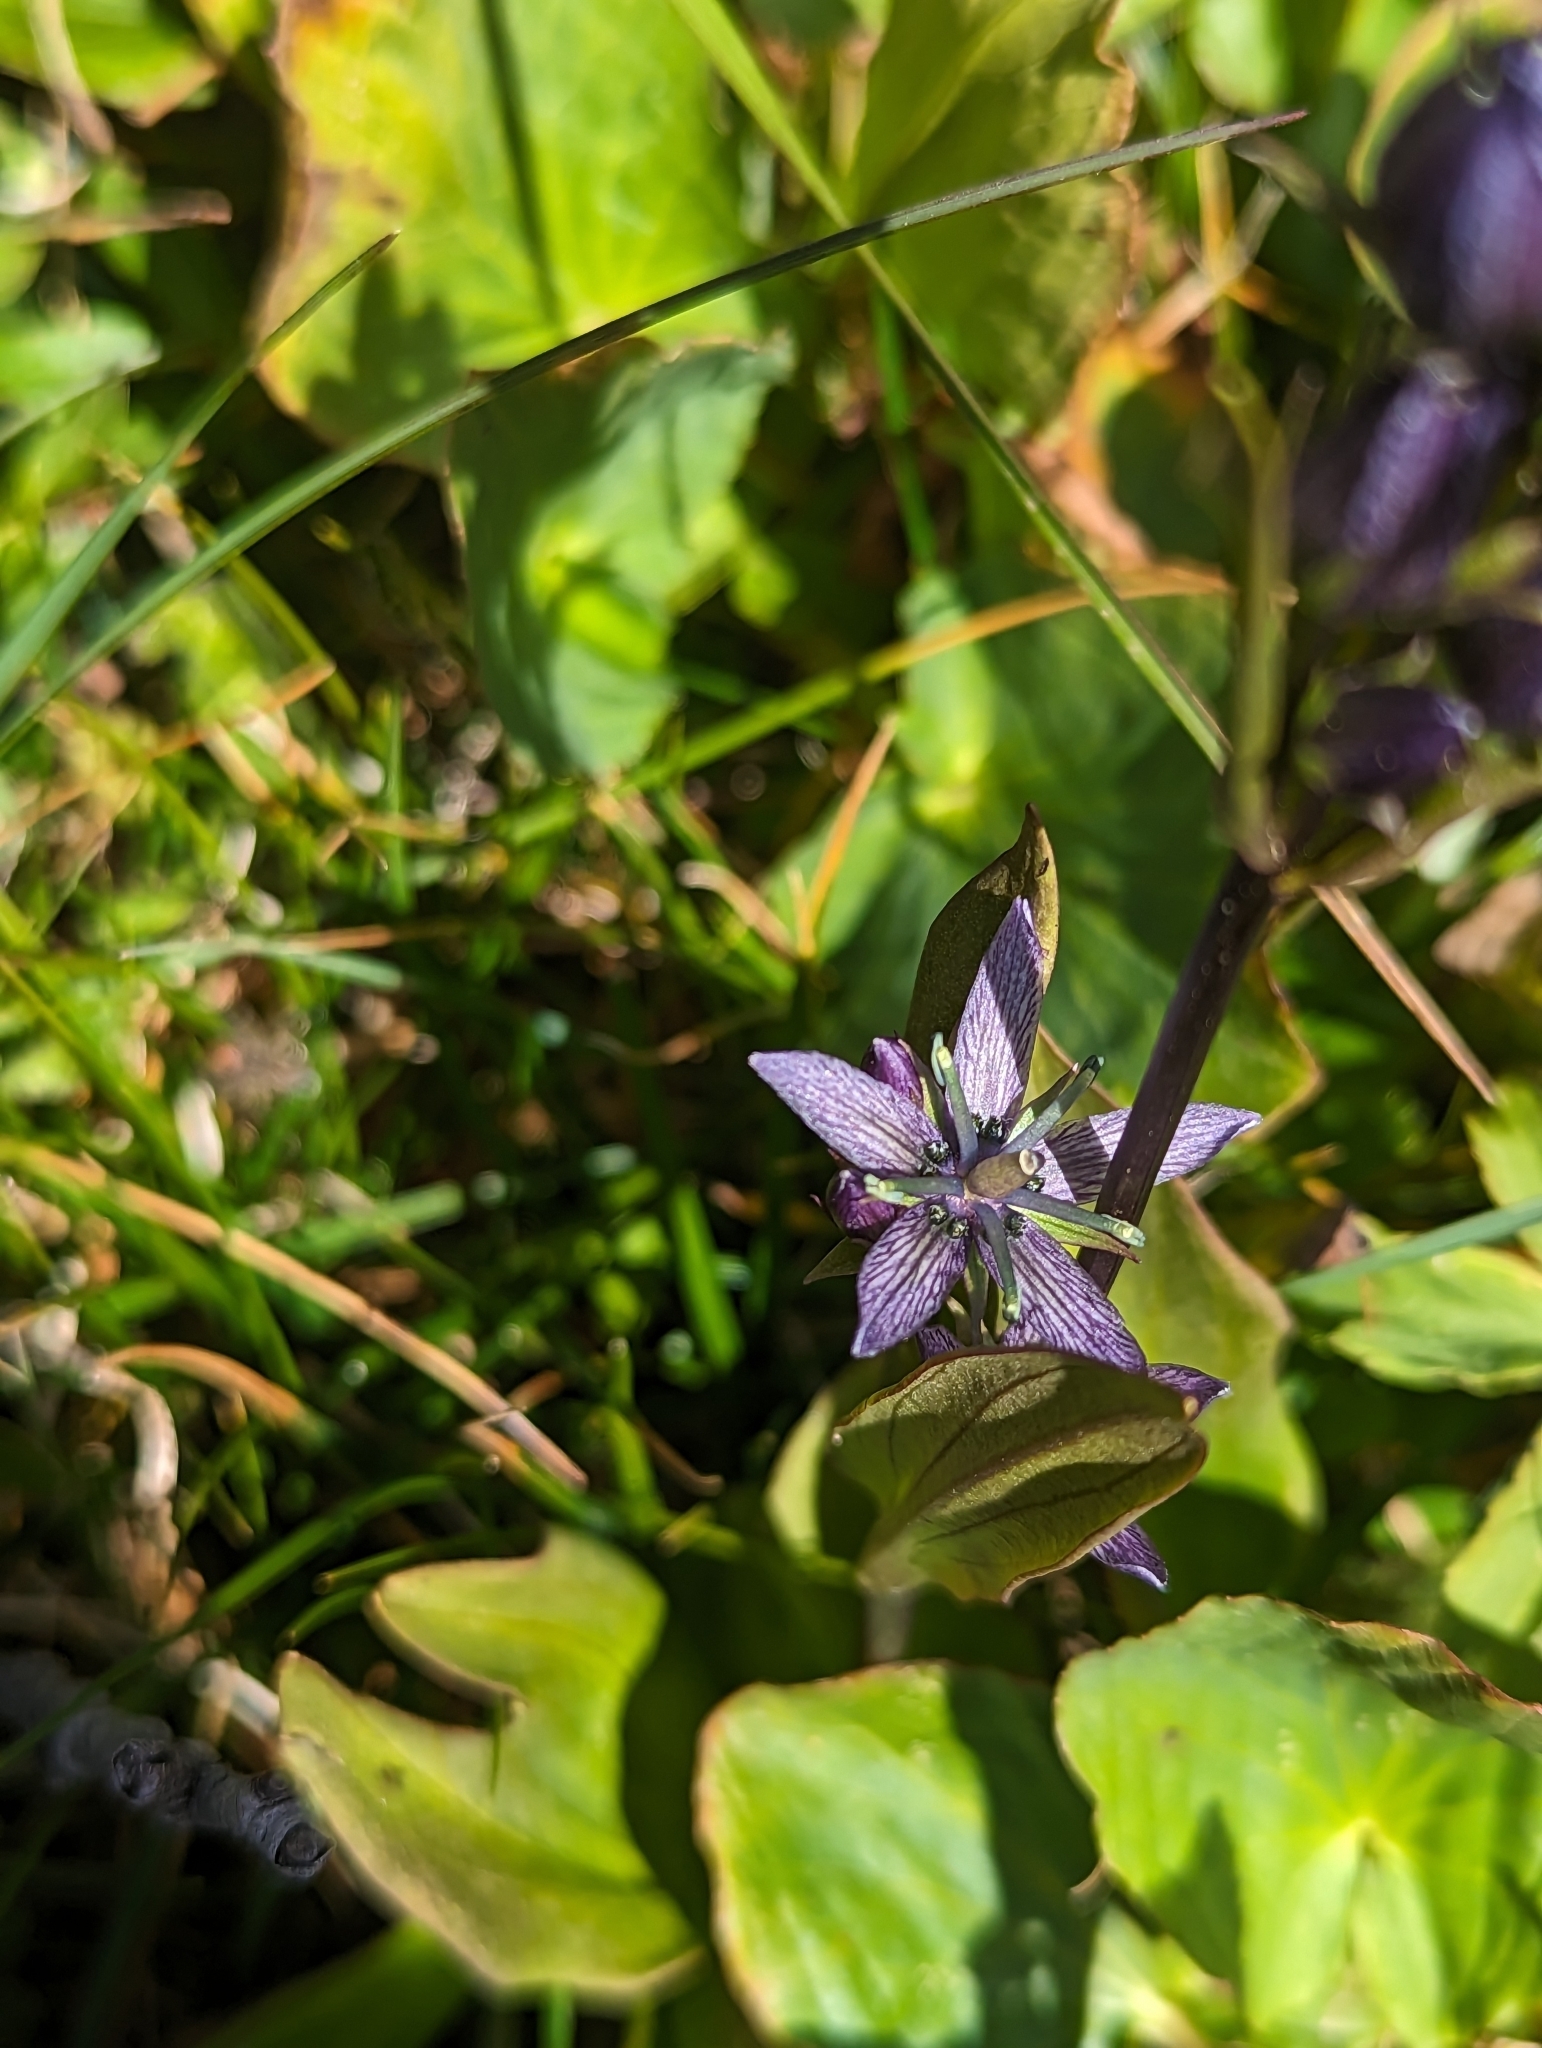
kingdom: Plantae
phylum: Tracheophyta
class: Magnoliopsida
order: Gentianales
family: Gentianaceae
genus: Swertia
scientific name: Swertia perennis
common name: Alpine bog swertia
